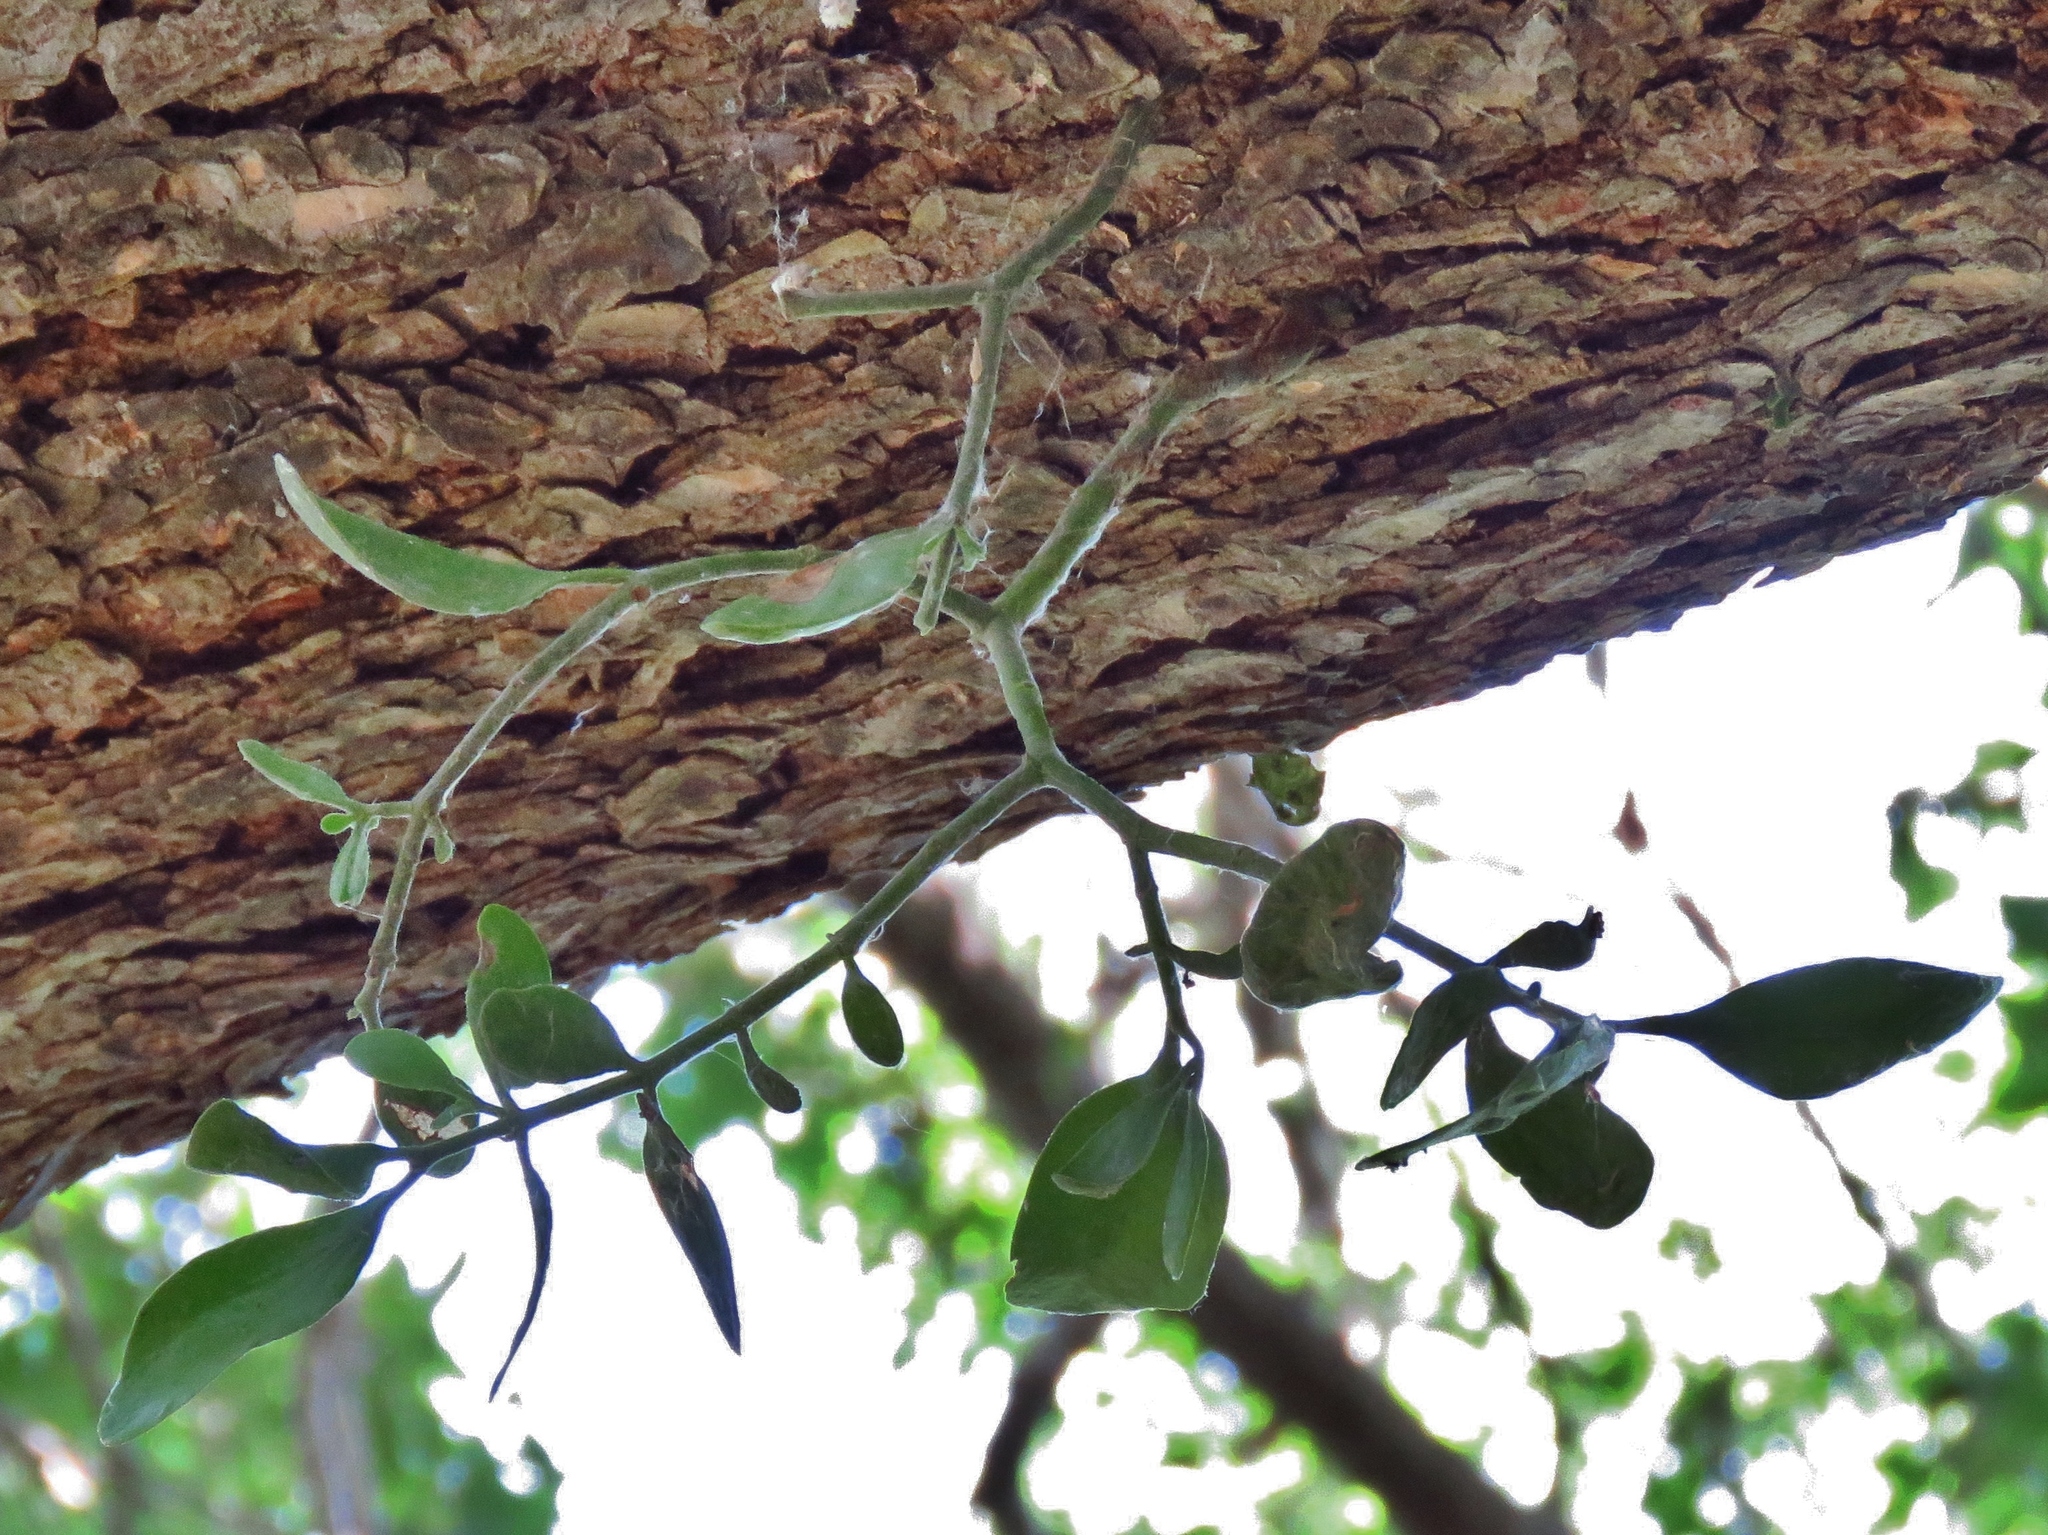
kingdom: Plantae
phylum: Tracheophyta
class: Magnoliopsida
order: Santalales
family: Viscaceae
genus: Phoradendron
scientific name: Phoradendron leucarpum
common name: Pacific mistletoe
